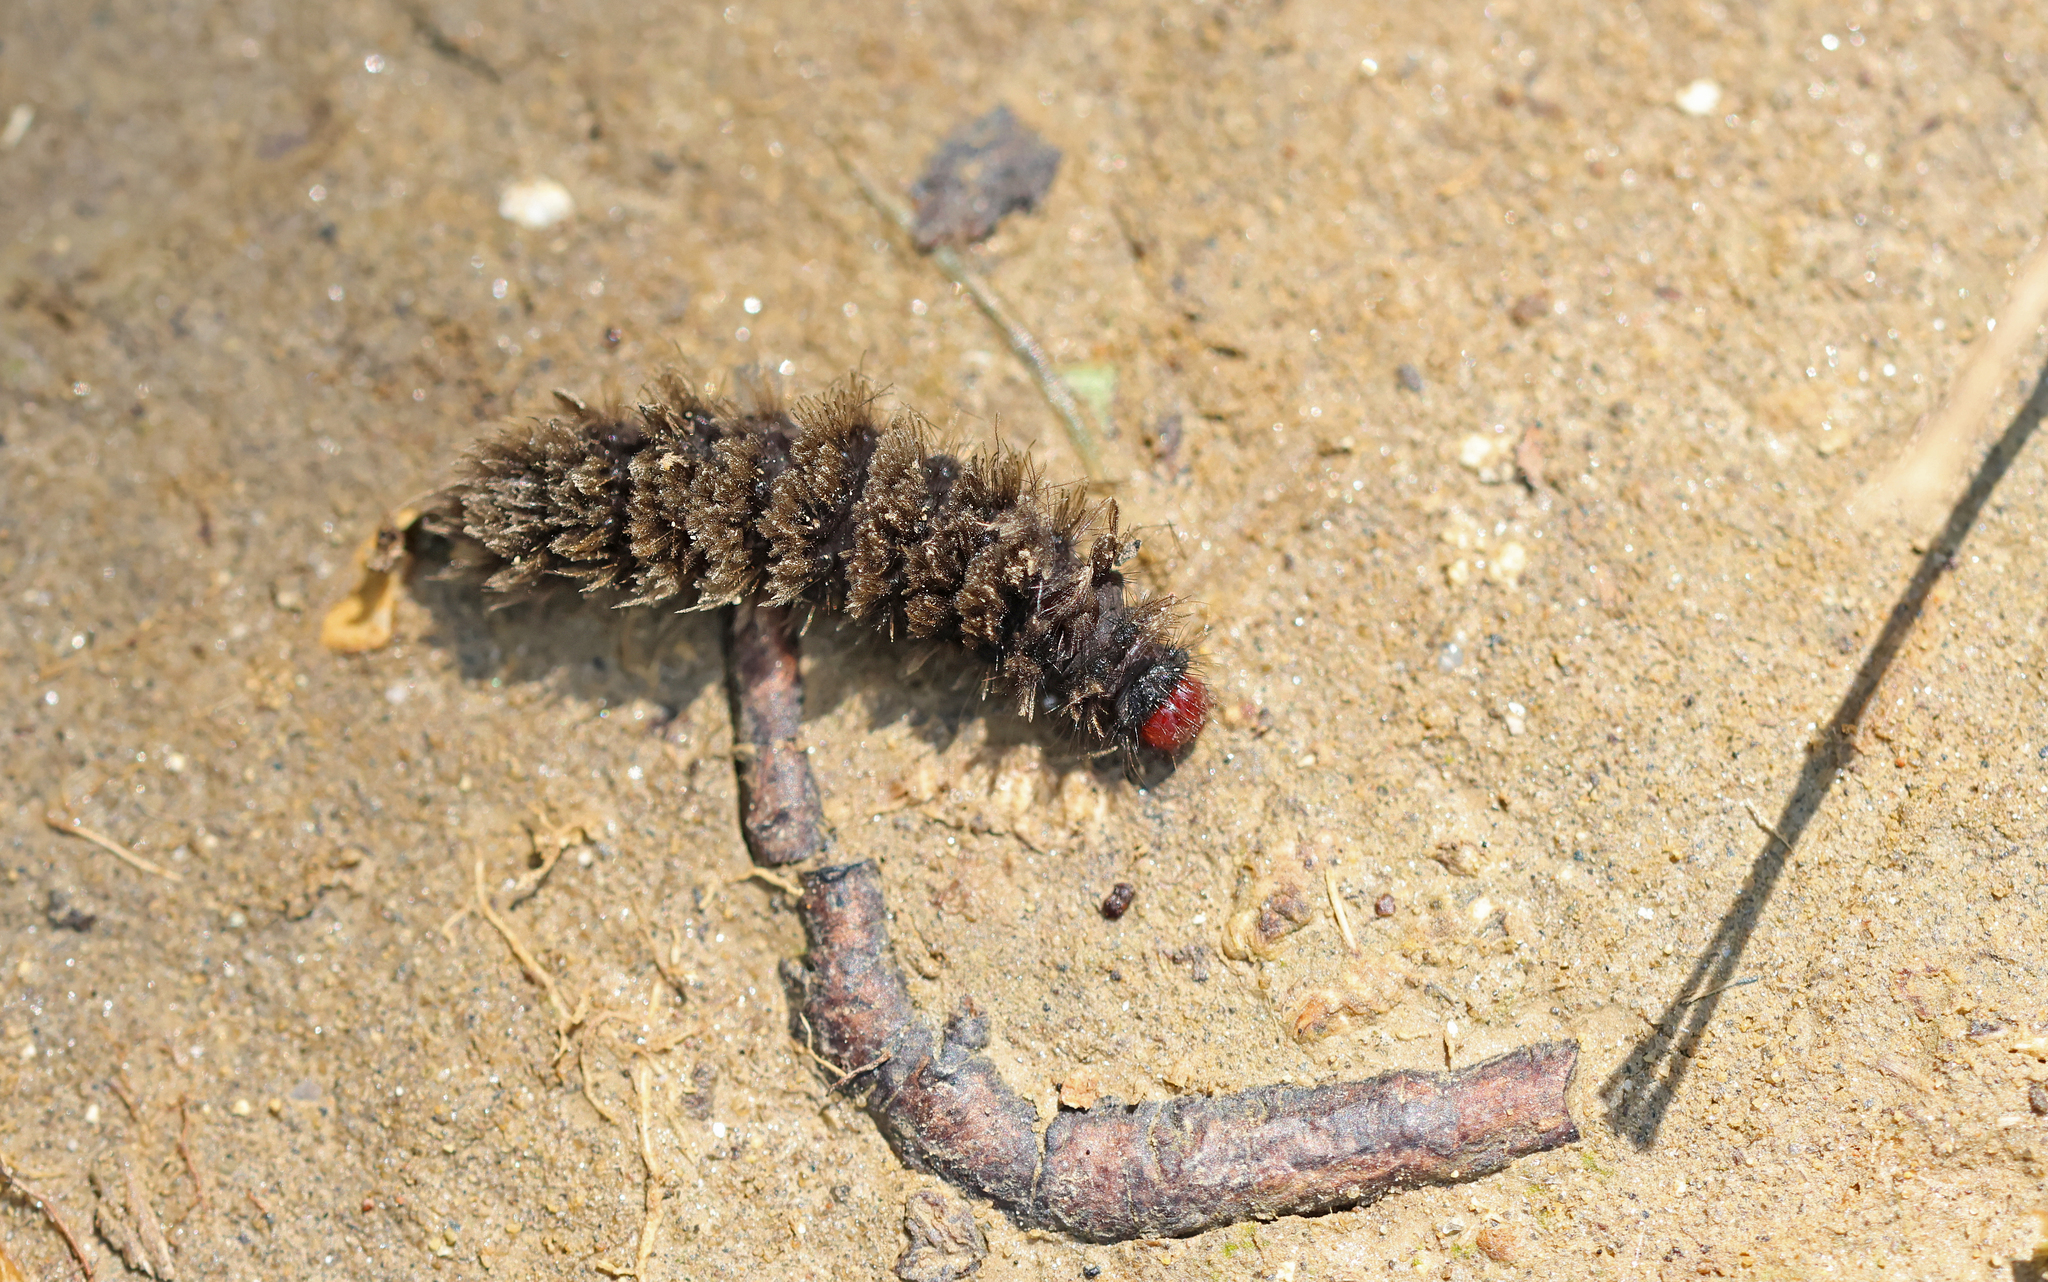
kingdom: Animalia
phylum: Arthropoda
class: Insecta
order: Lepidoptera
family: Erebidae
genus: Amata
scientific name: Amata phegea
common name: Nine-spotted
